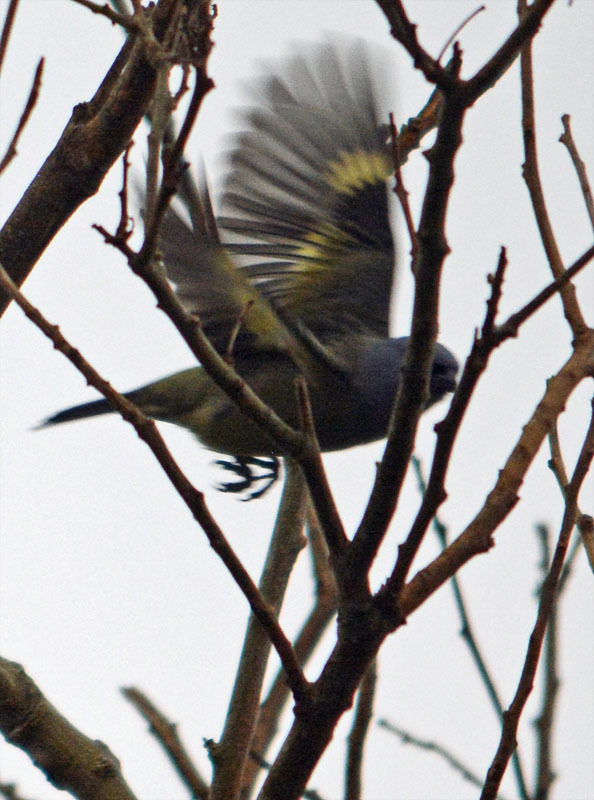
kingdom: Animalia
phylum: Chordata
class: Aves
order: Passeriformes
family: Thraupidae
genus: Thraupis
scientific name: Thraupis abbas
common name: Yellow-winged tanager
